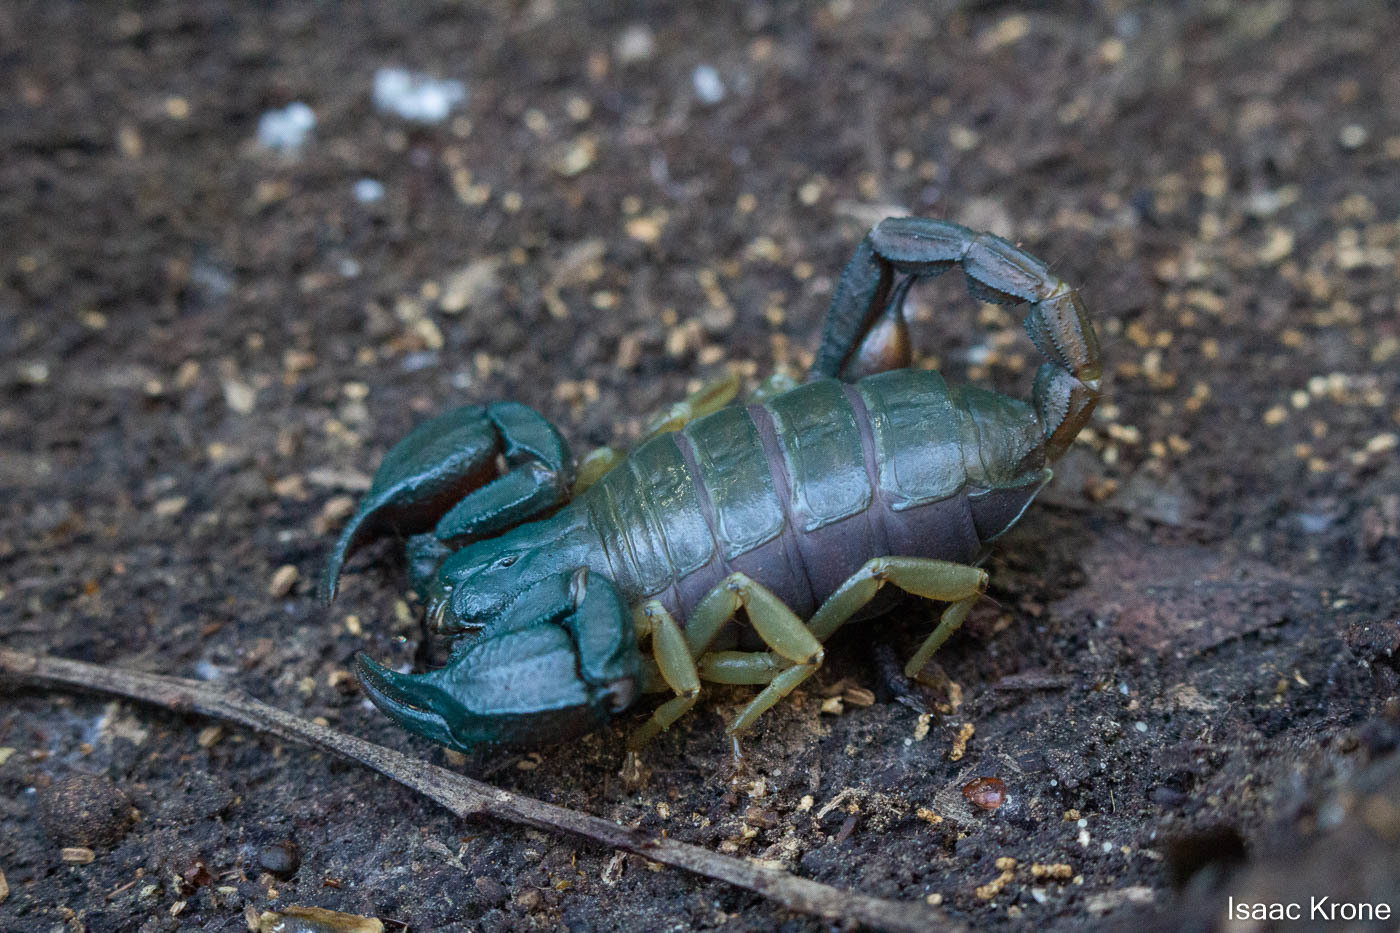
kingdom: Animalia
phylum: Arthropoda
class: Arachnida
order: Scorpiones
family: Chactidae
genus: Uroctonus
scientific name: Uroctonus mordax
